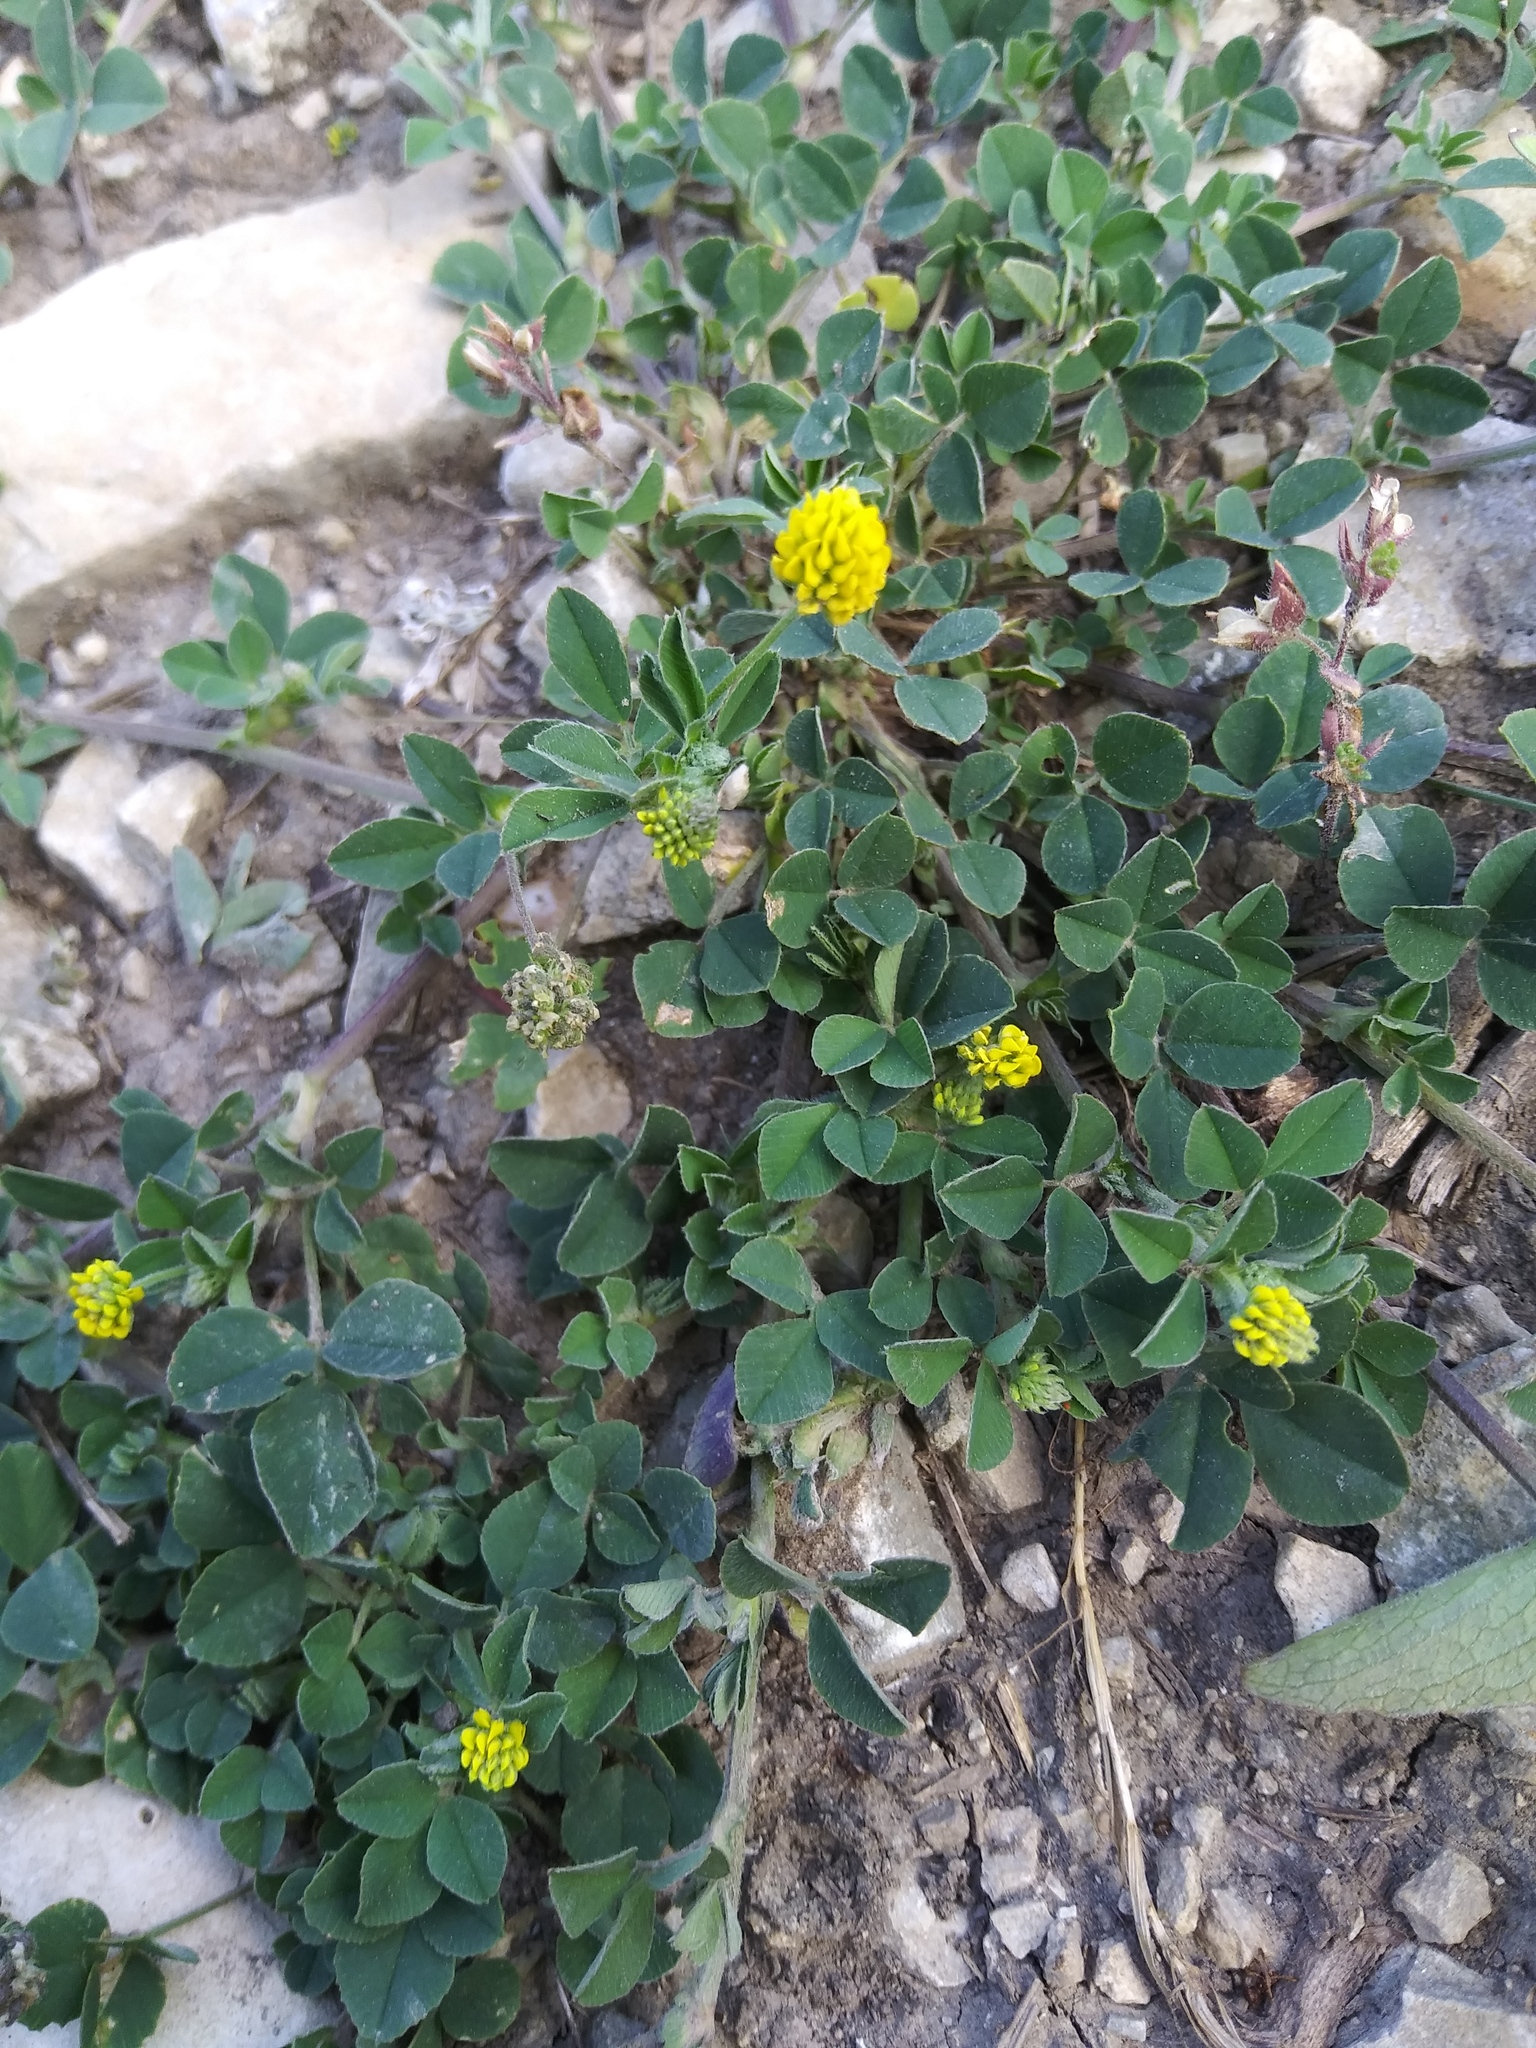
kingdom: Plantae
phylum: Tracheophyta
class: Magnoliopsida
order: Fabales
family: Fabaceae
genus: Medicago
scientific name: Medicago lupulina
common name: Black medick
